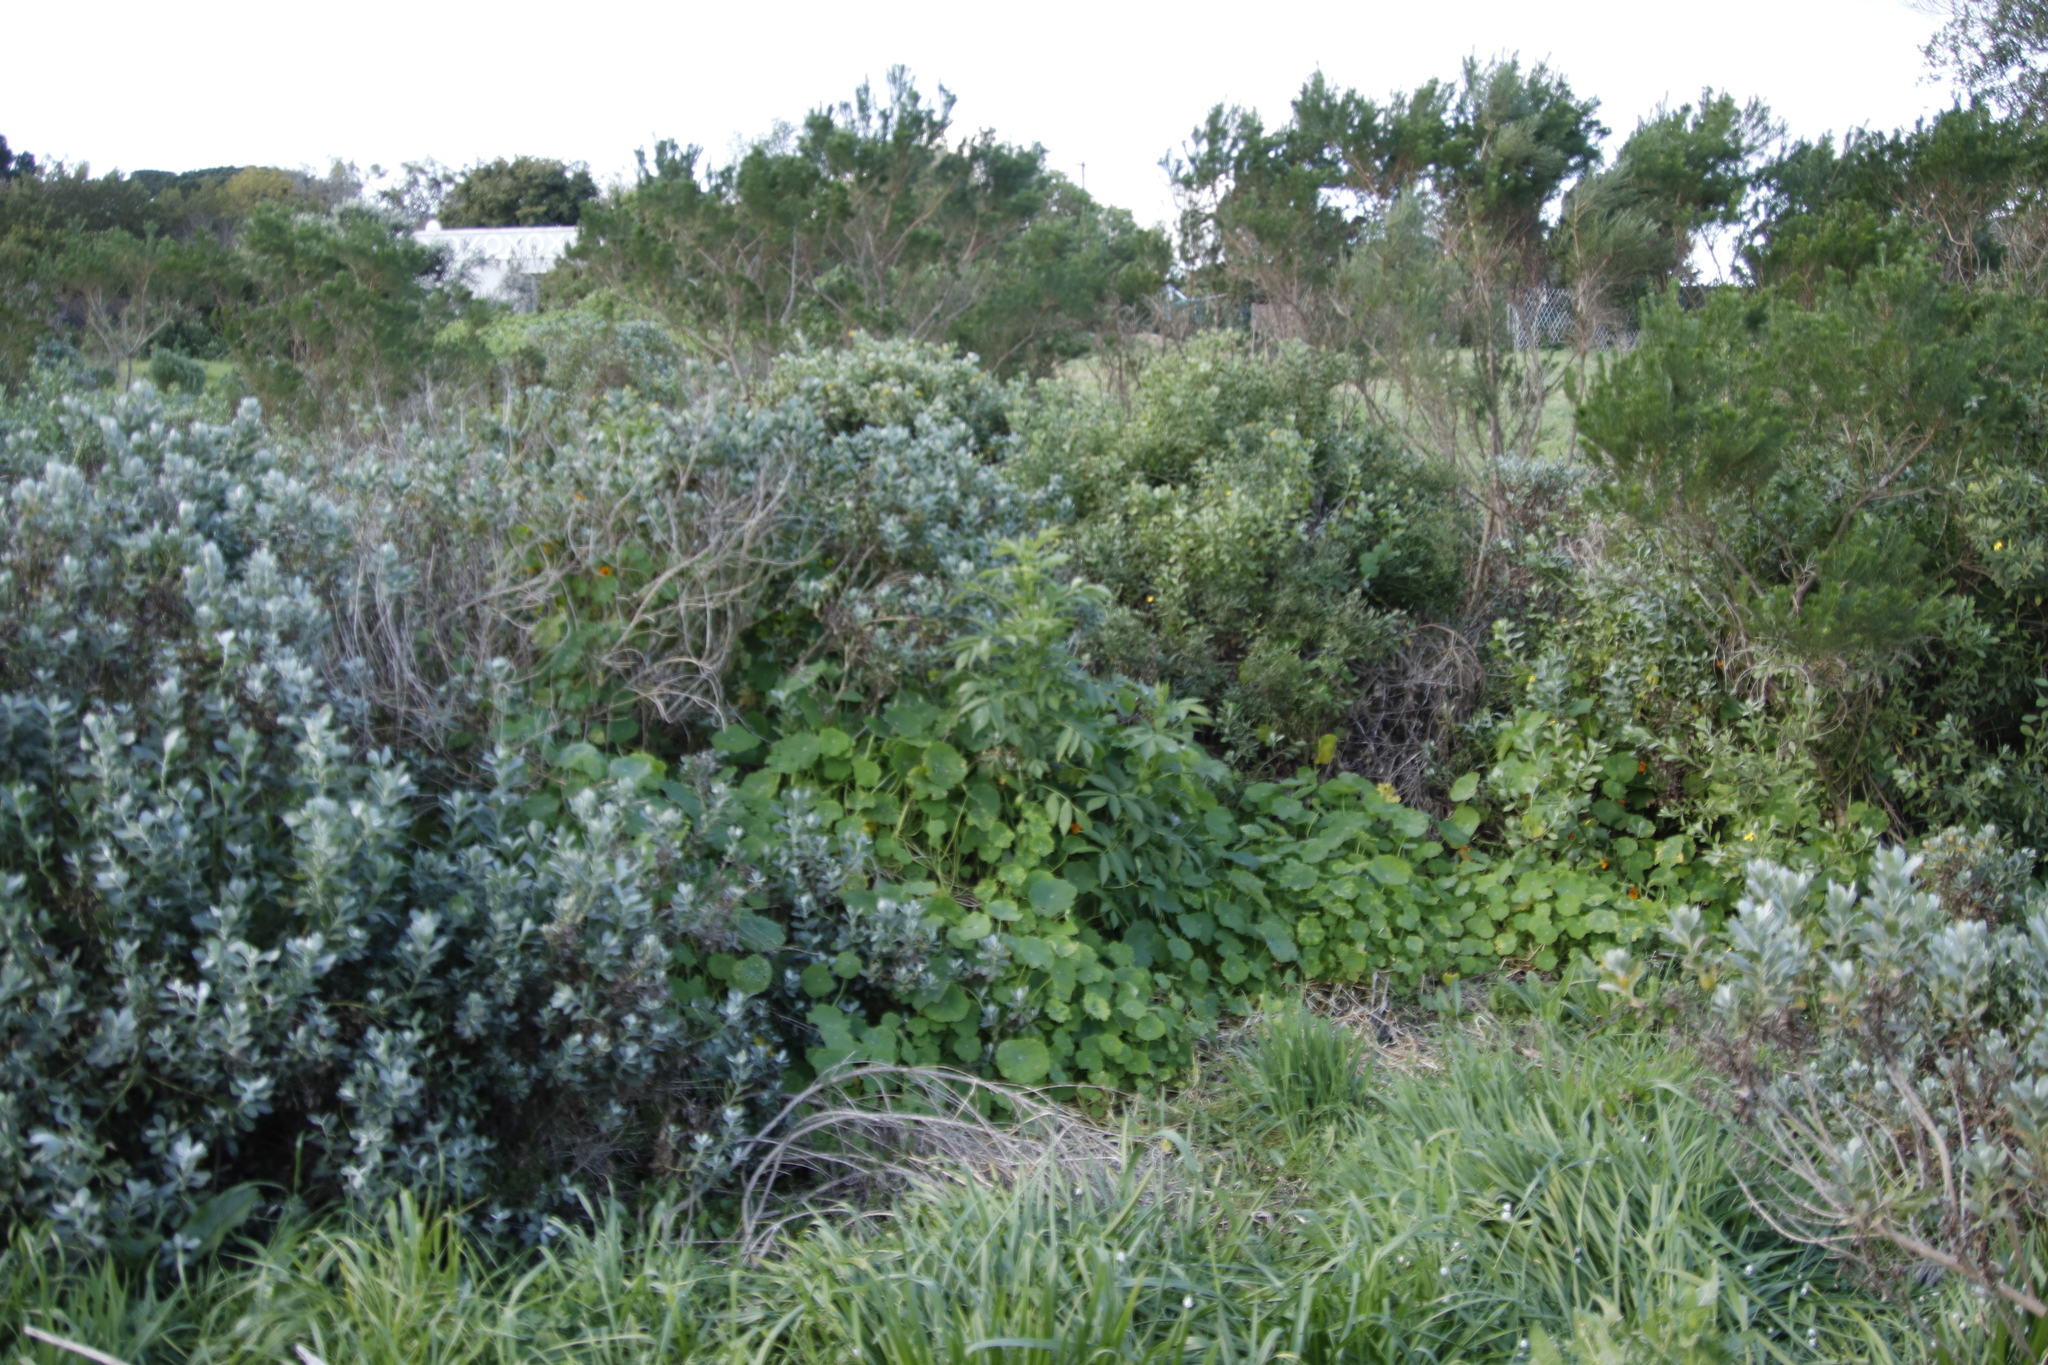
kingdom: Plantae
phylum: Tracheophyta
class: Magnoliopsida
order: Dipsacales
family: Viburnaceae
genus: Sambucus
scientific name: Sambucus nigra
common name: Elder
